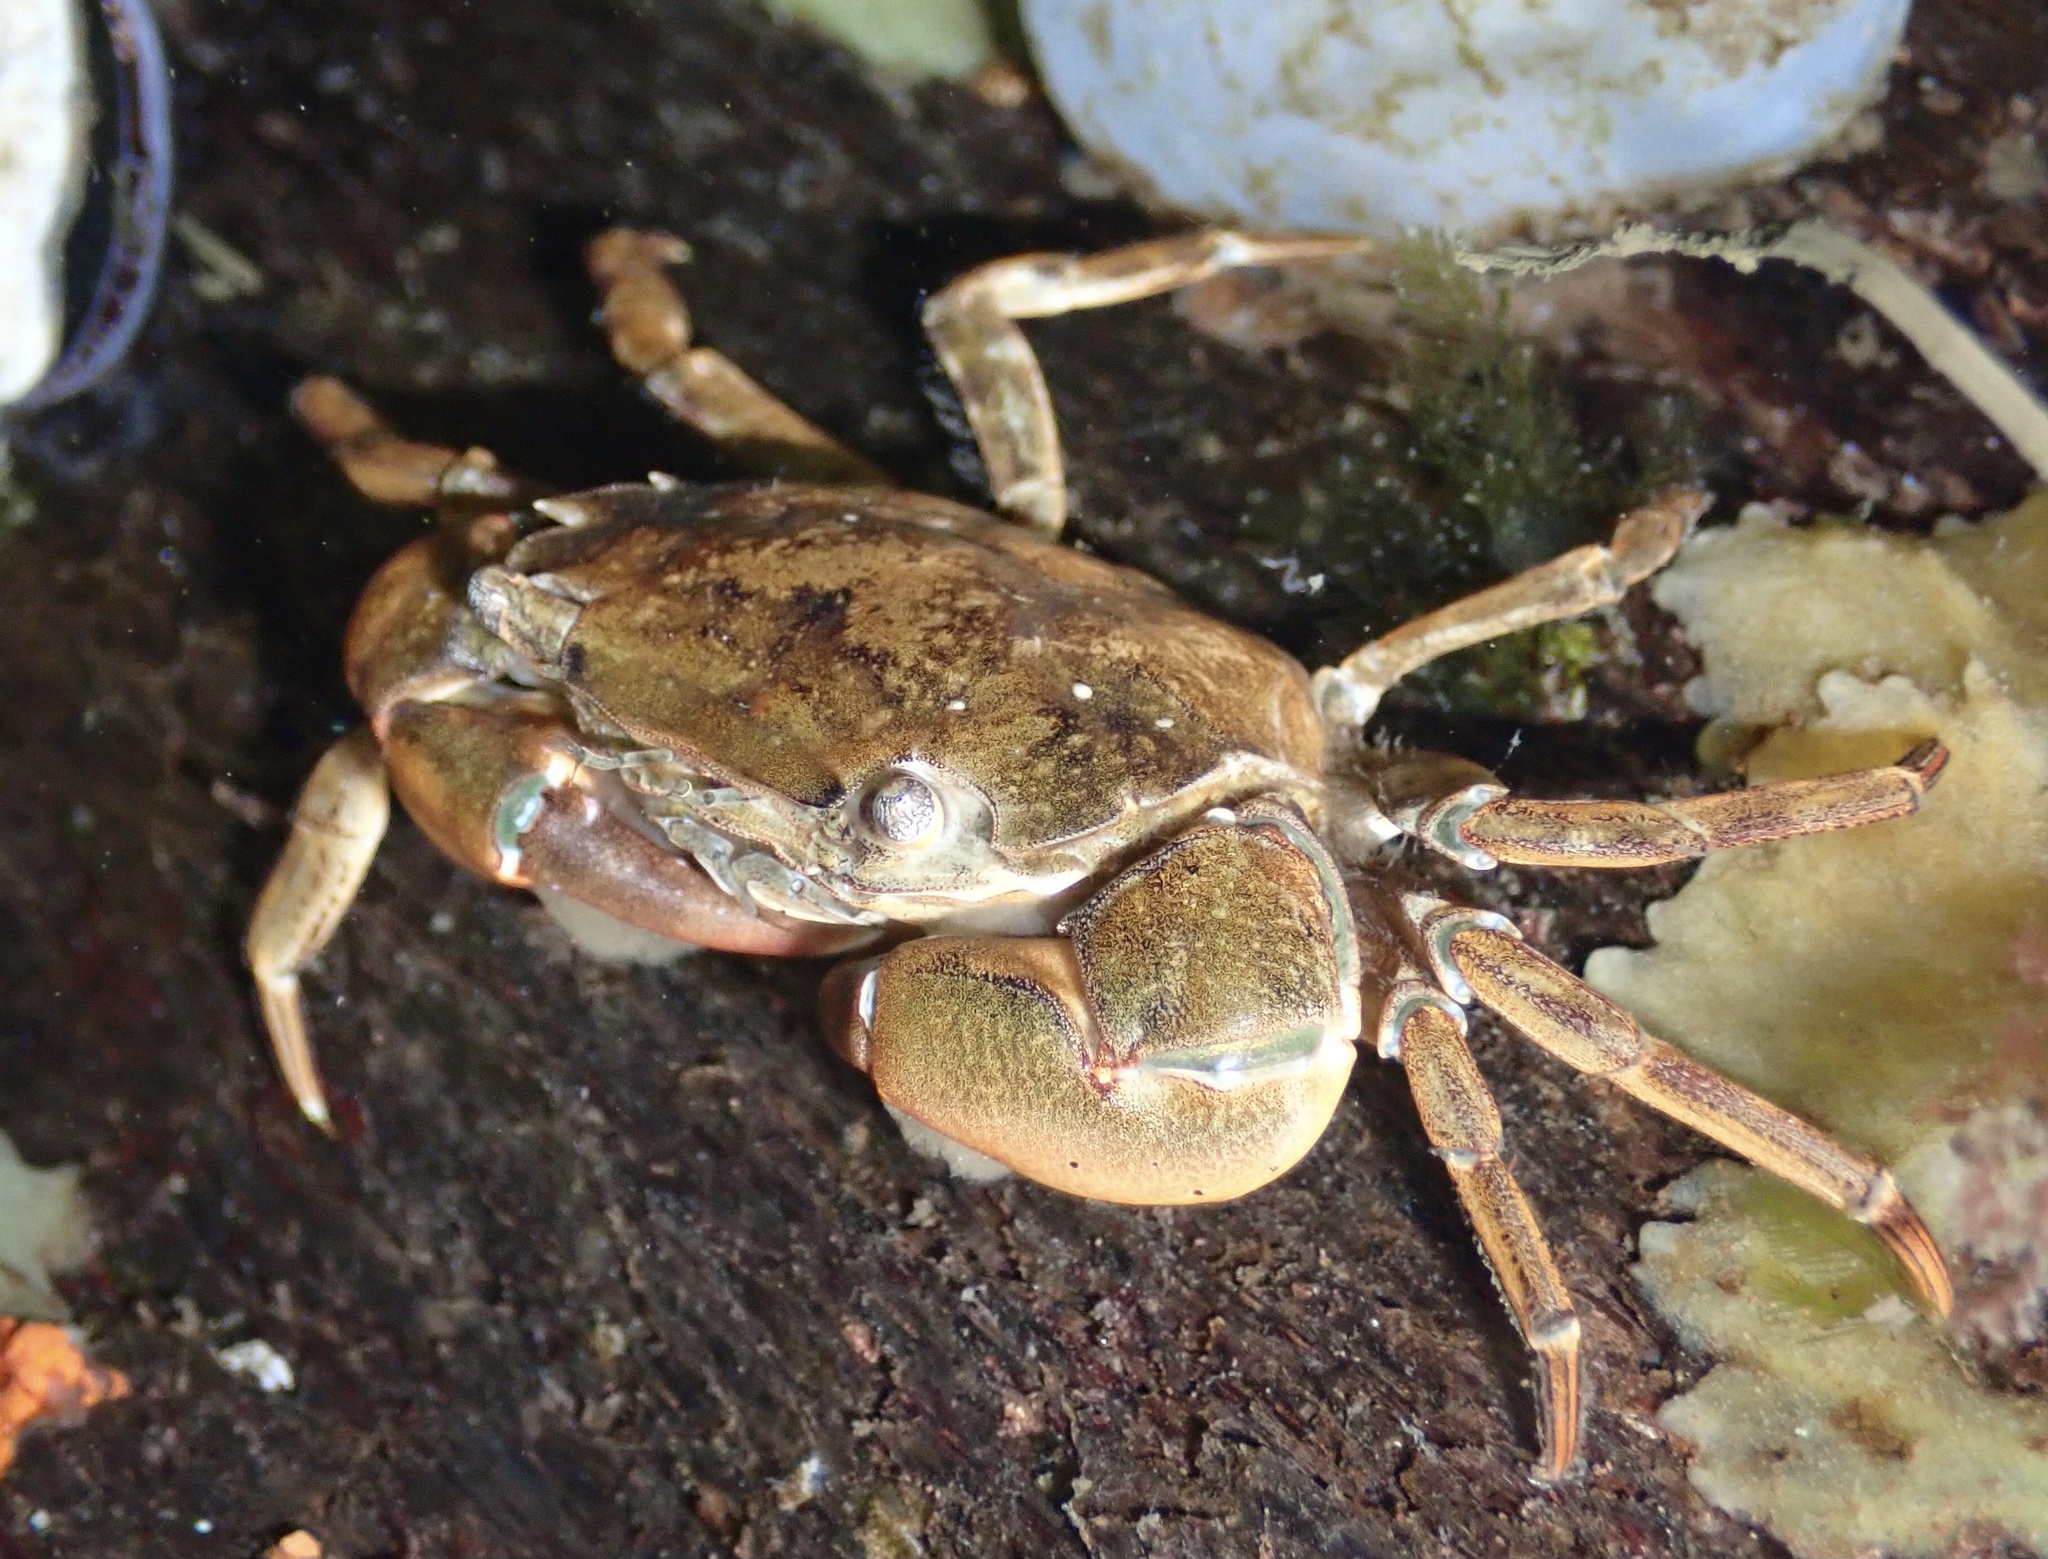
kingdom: Animalia
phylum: Arthropoda
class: Malacostraca
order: Decapoda
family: Varunidae
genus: Hemigrapsus
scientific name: Hemigrapsus takanoi
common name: Asian brush crab
